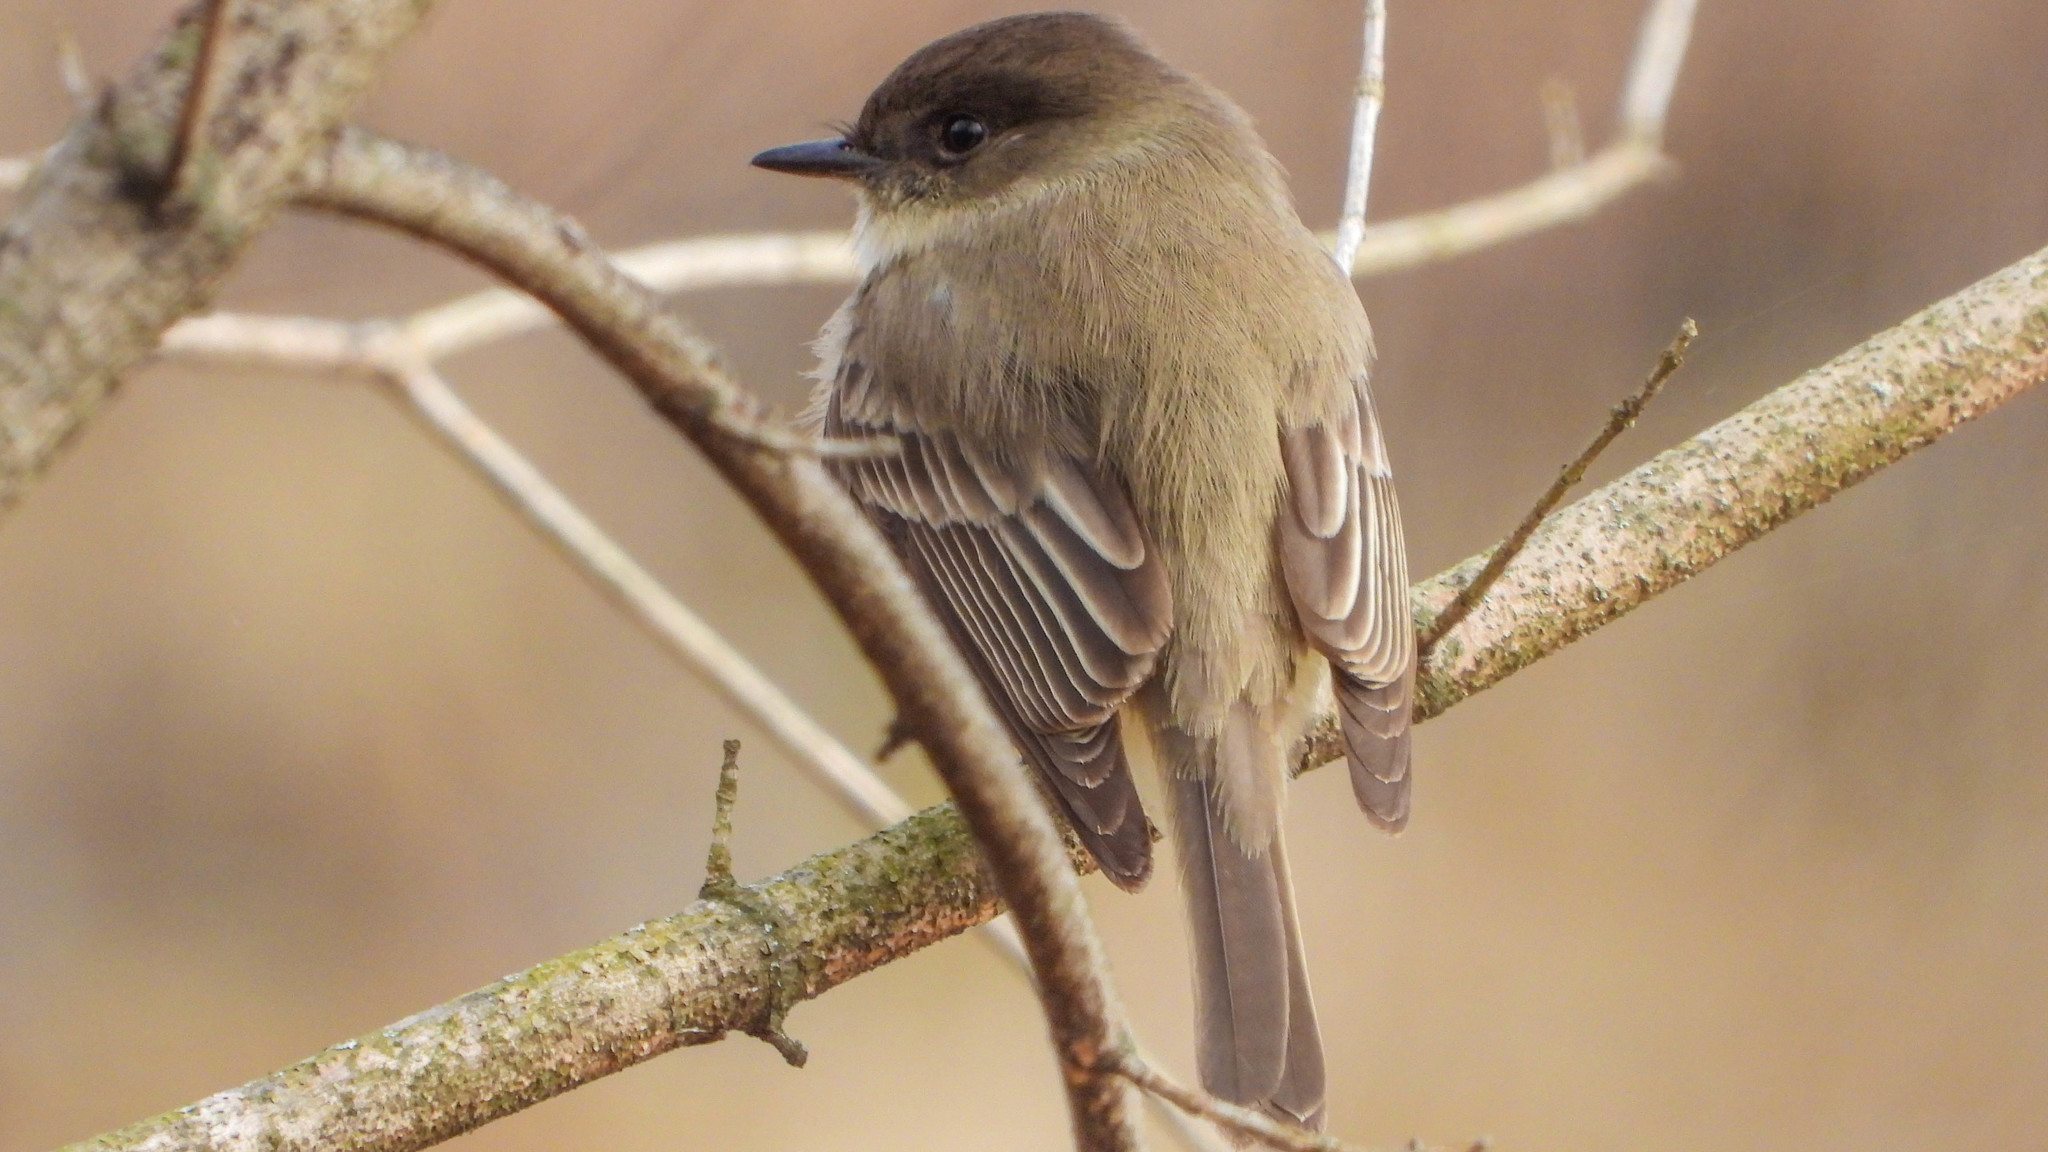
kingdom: Animalia
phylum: Chordata
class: Aves
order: Passeriformes
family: Tyrannidae
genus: Sayornis
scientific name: Sayornis phoebe
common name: Eastern phoebe
